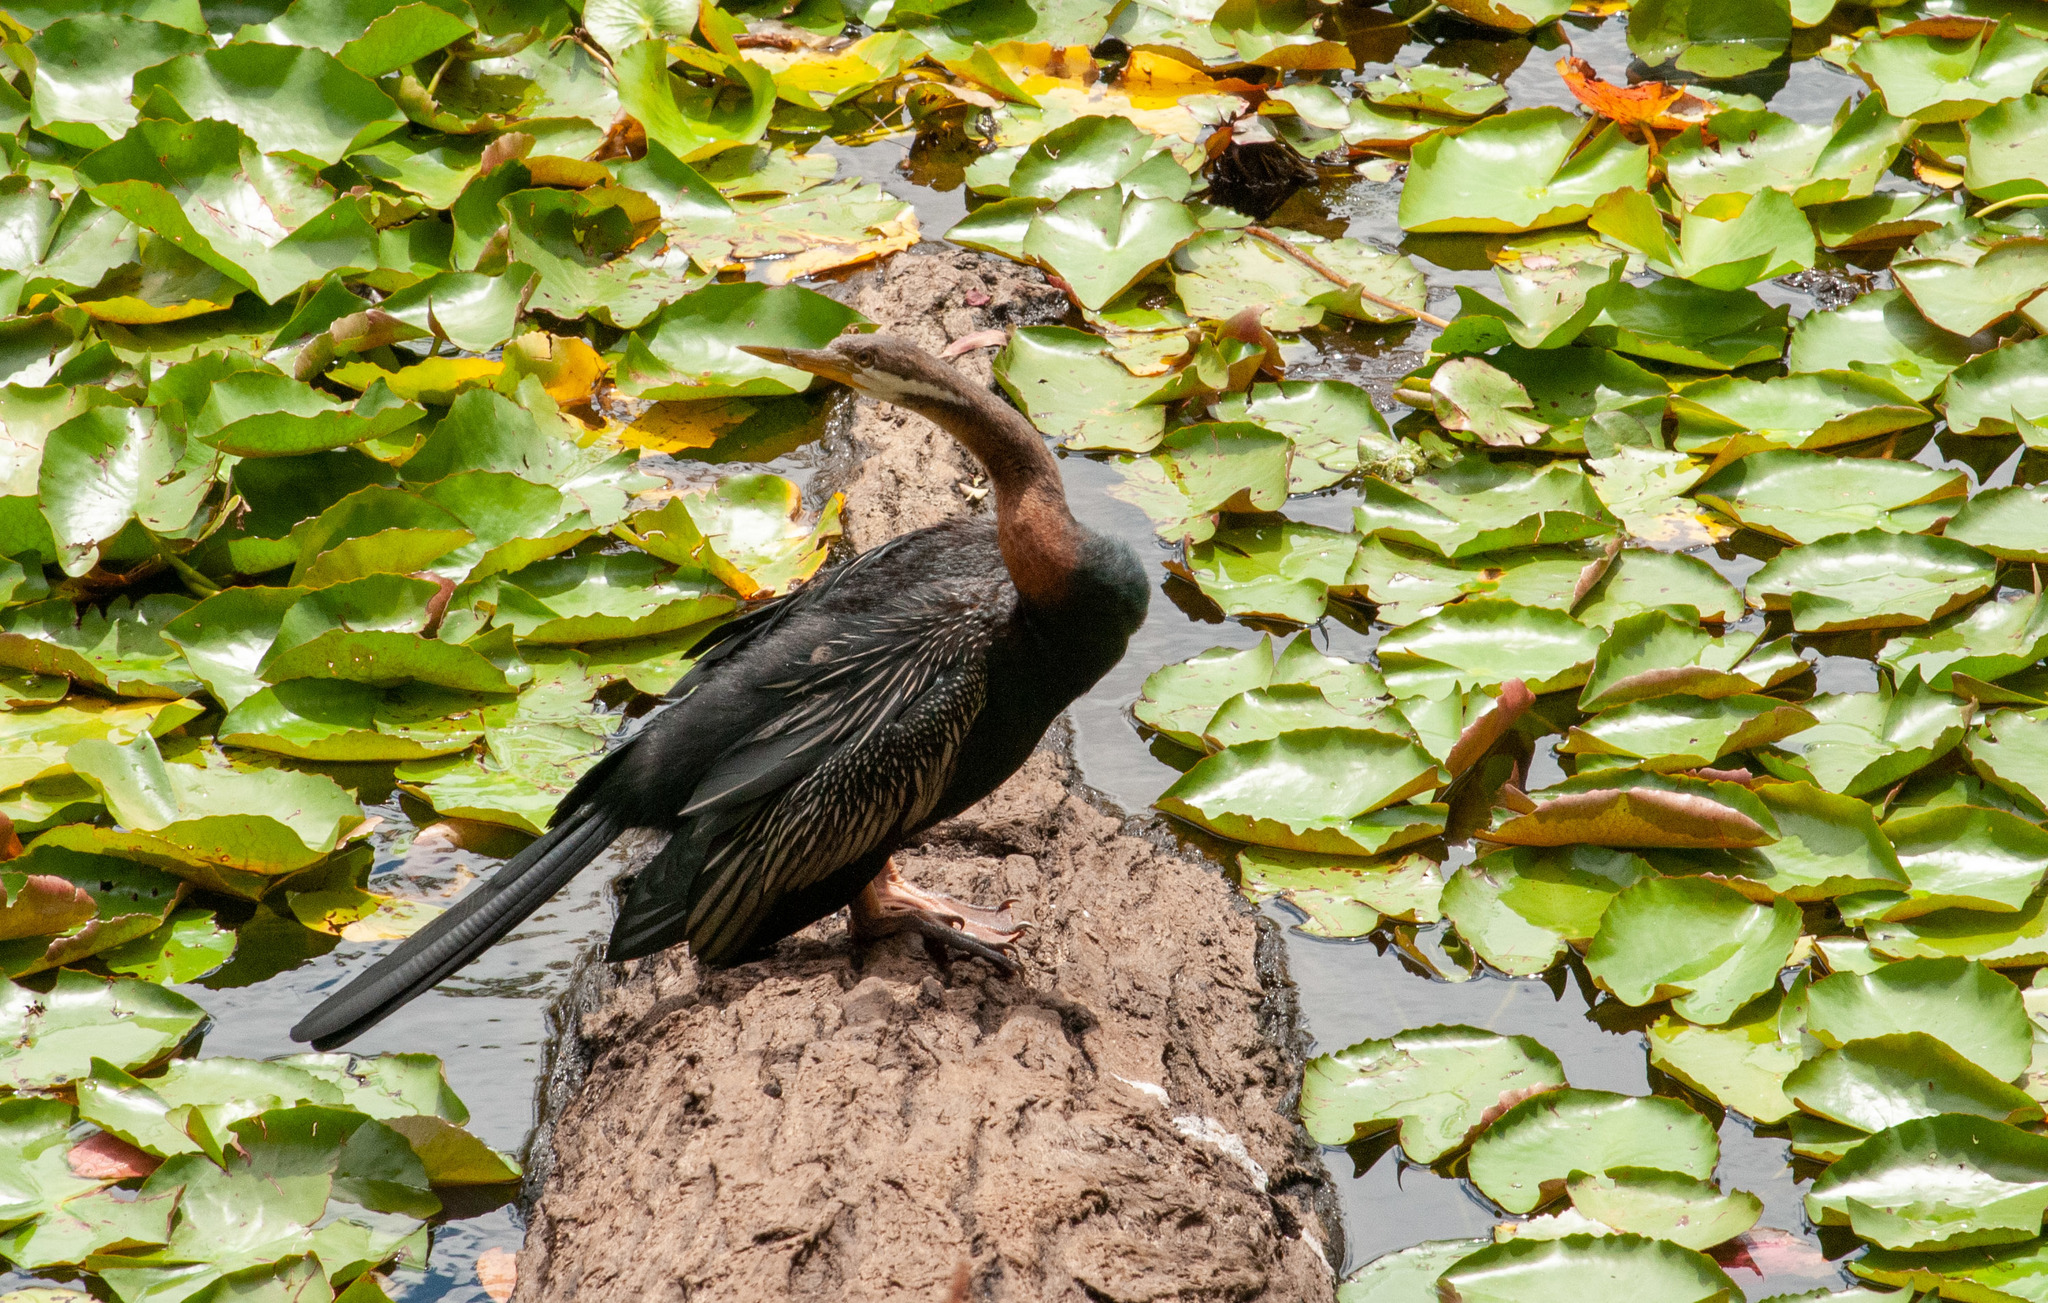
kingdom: Animalia
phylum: Chordata
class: Aves
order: Suliformes
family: Anhingidae
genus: Anhinga
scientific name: Anhinga novaehollandiae
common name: Australasian darter
